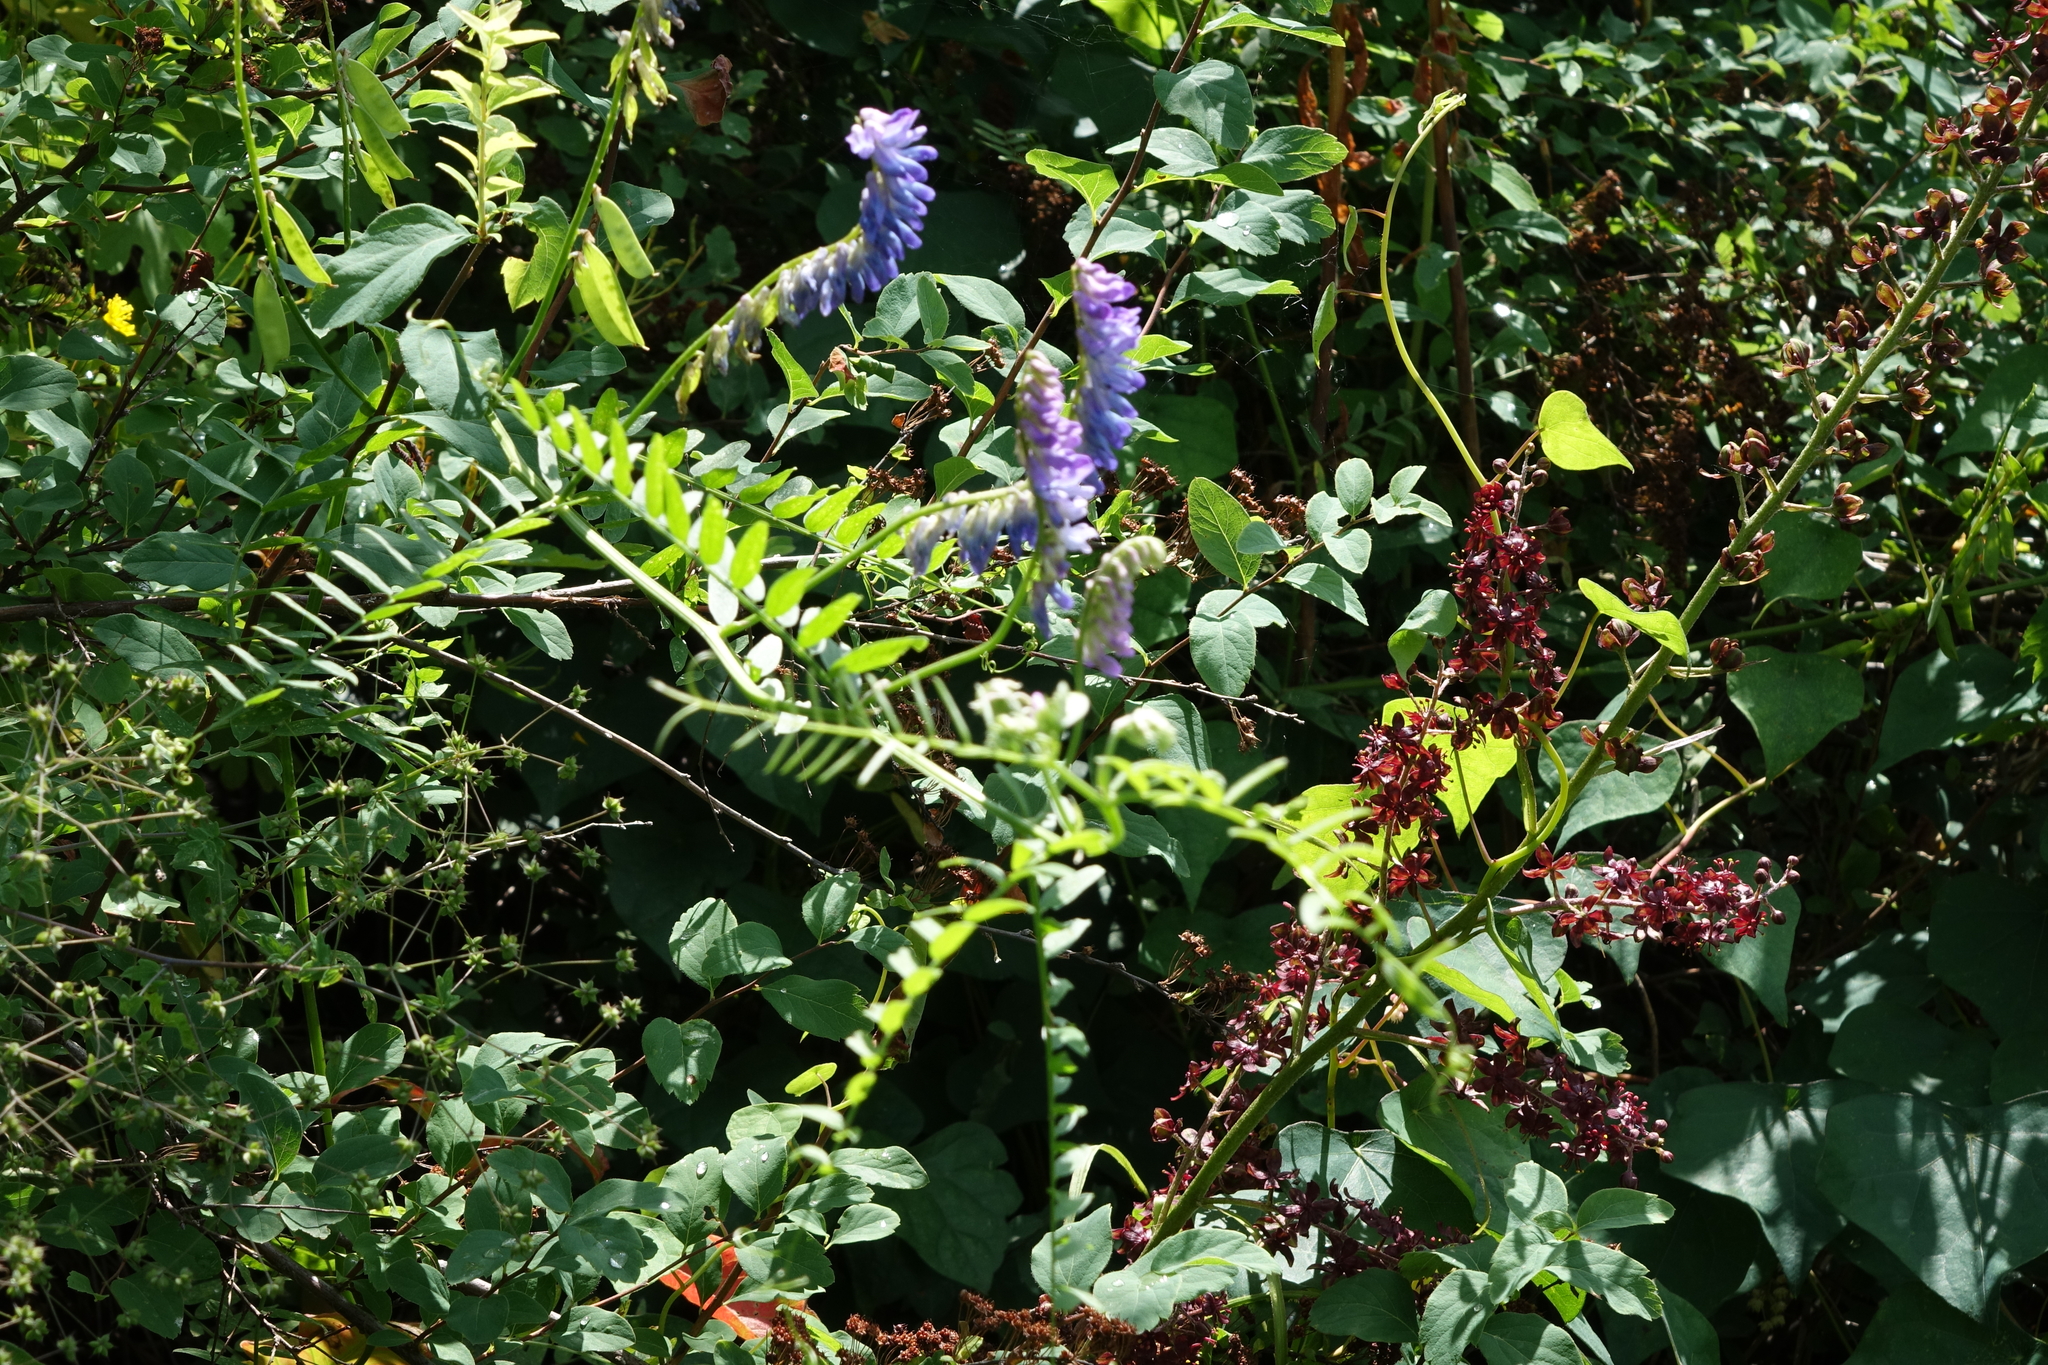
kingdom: Plantae
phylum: Tracheophyta
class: Magnoliopsida
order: Fabales
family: Fabaceae
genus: Vicia
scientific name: Vicia cracca
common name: Bird vetch
